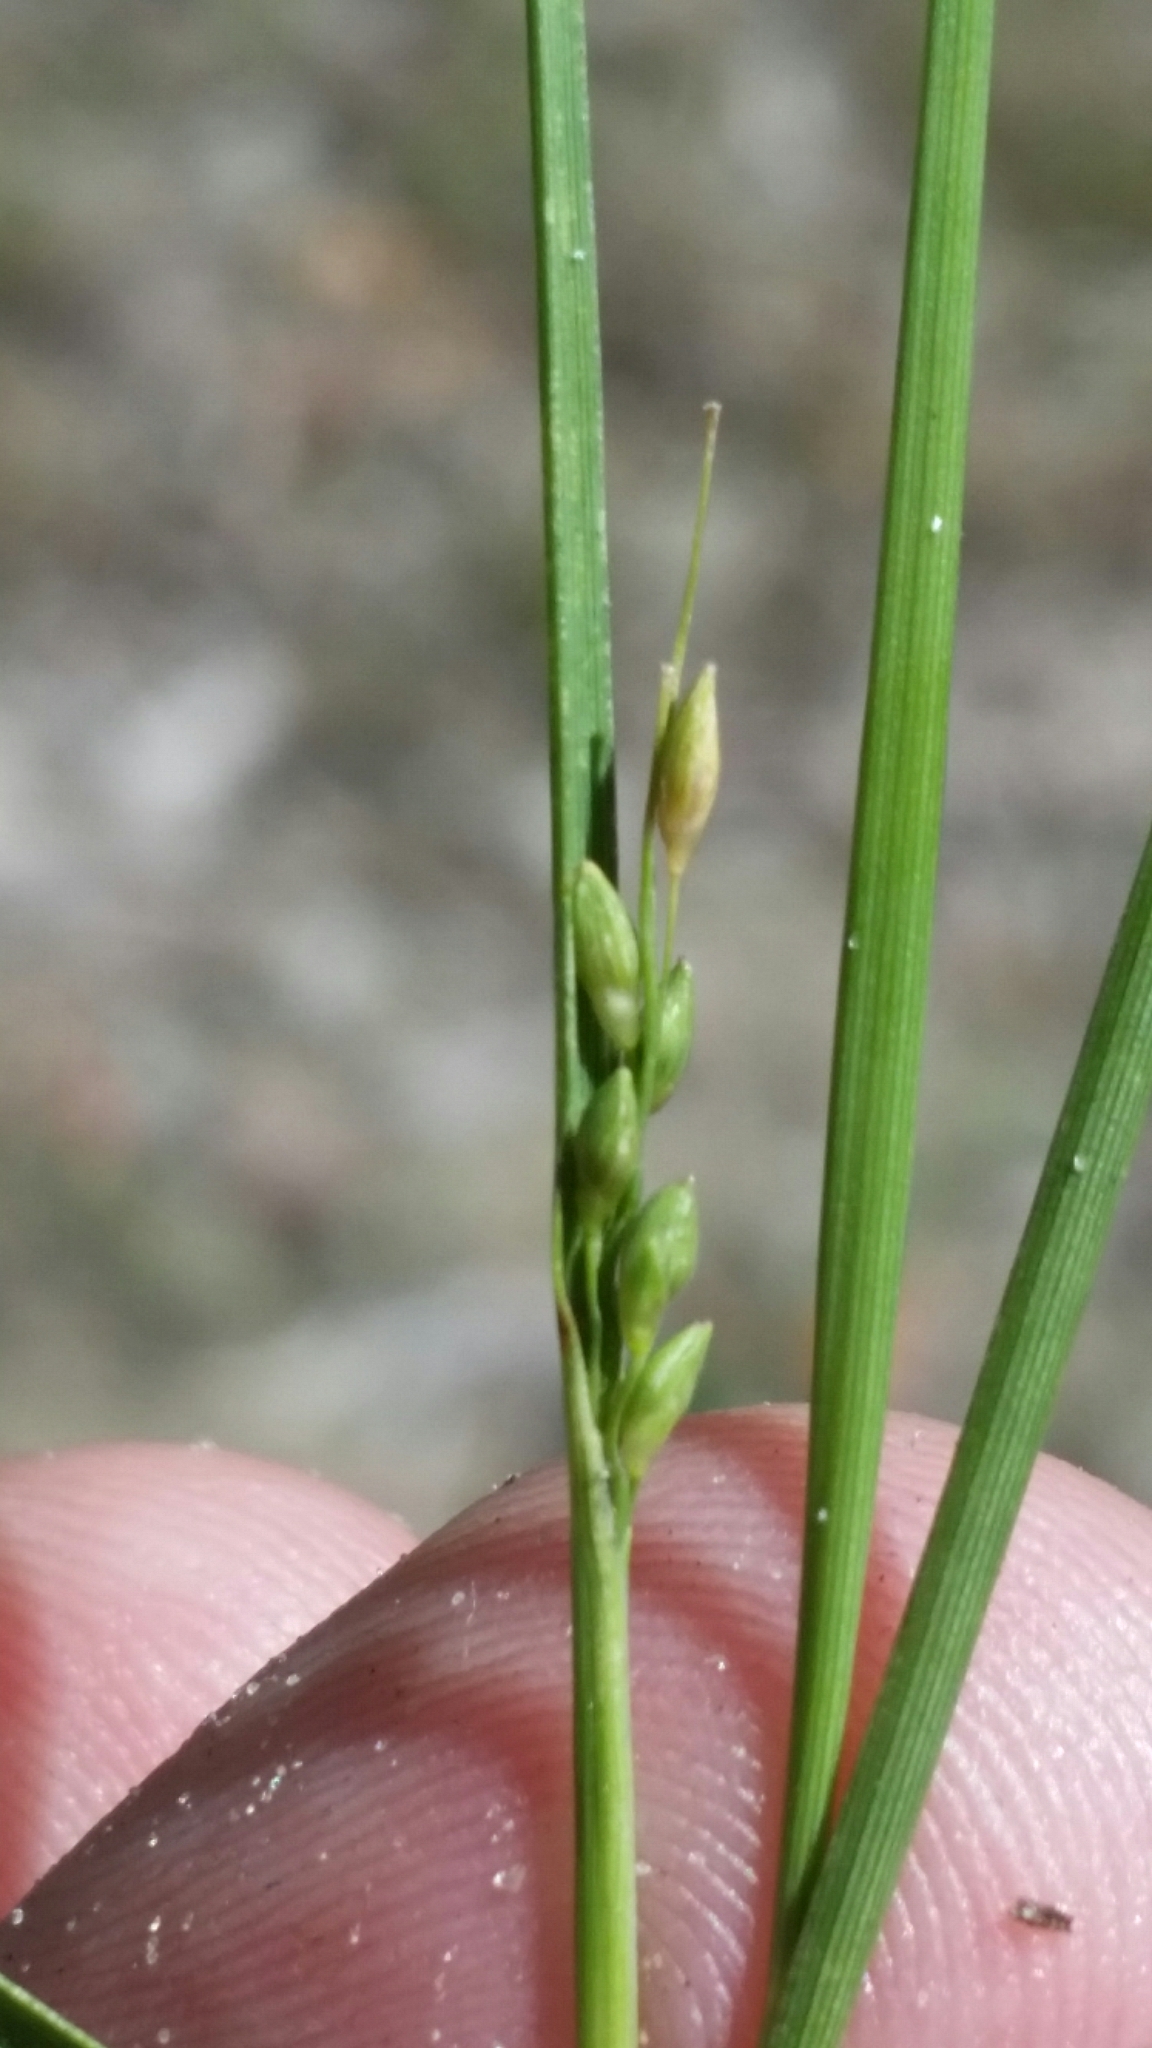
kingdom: Plantae
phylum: Tracheophyta
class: Liliopsida
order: Poales
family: Poaceae
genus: Dichanthelium
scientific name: Dichanthelium pinetorum
